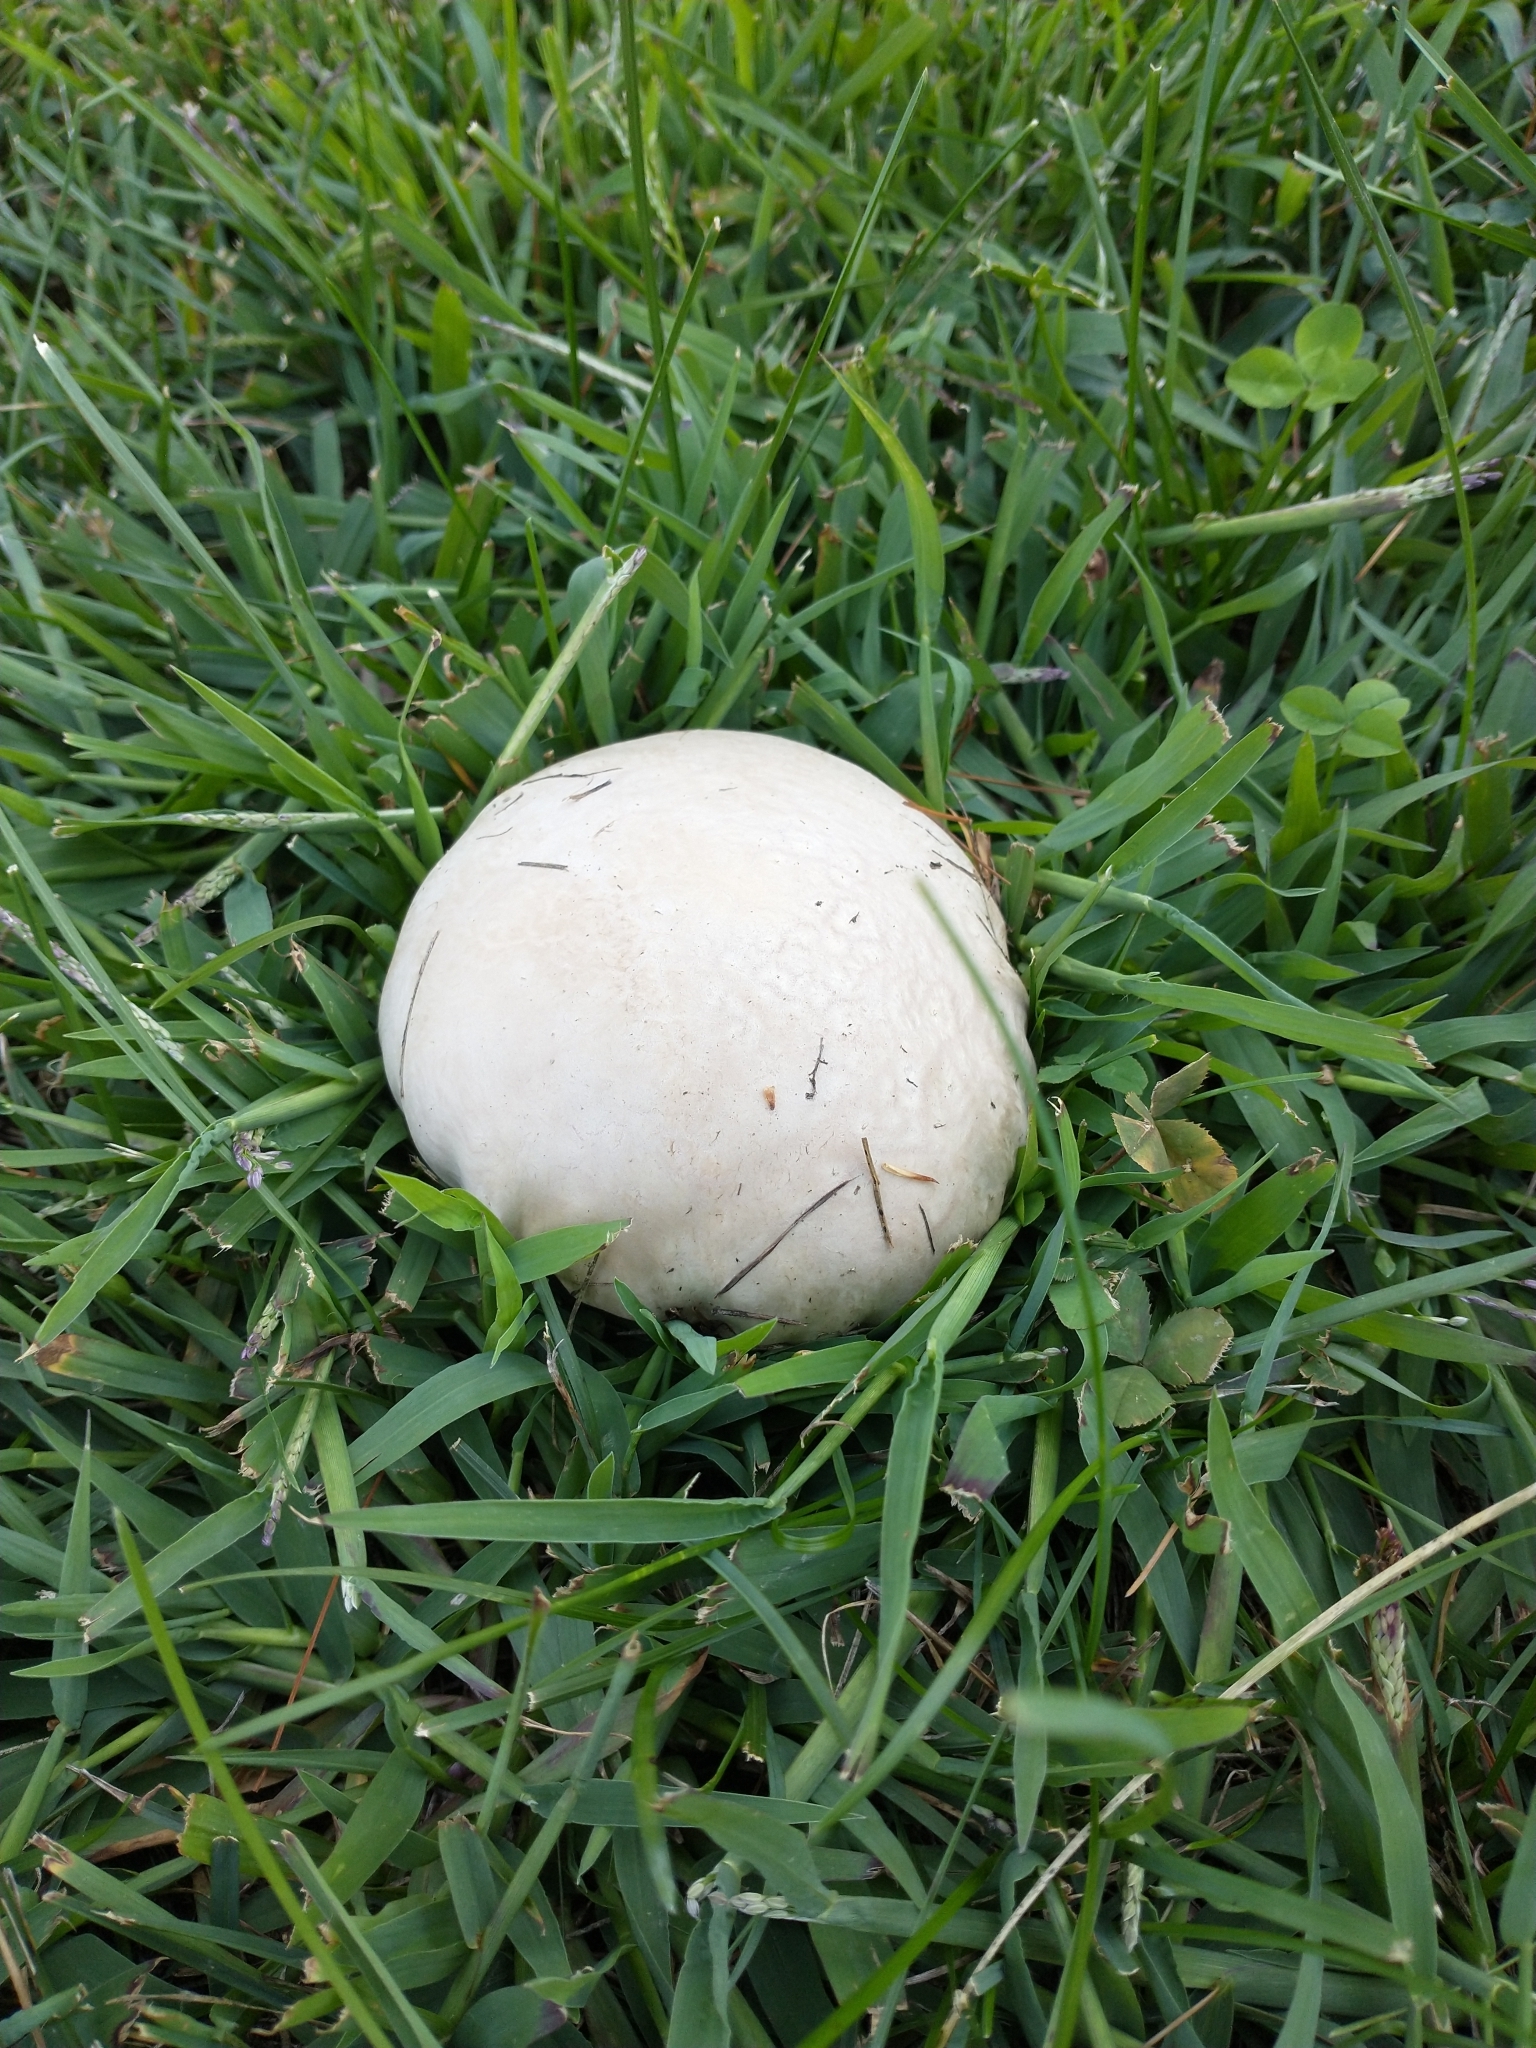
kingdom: Fungi
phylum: Basidiomycota
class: Agaricomycetes
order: Agaricales
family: Lycoperdaceae
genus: Calvatia
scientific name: Calvatia gigantea
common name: Giant puffball
